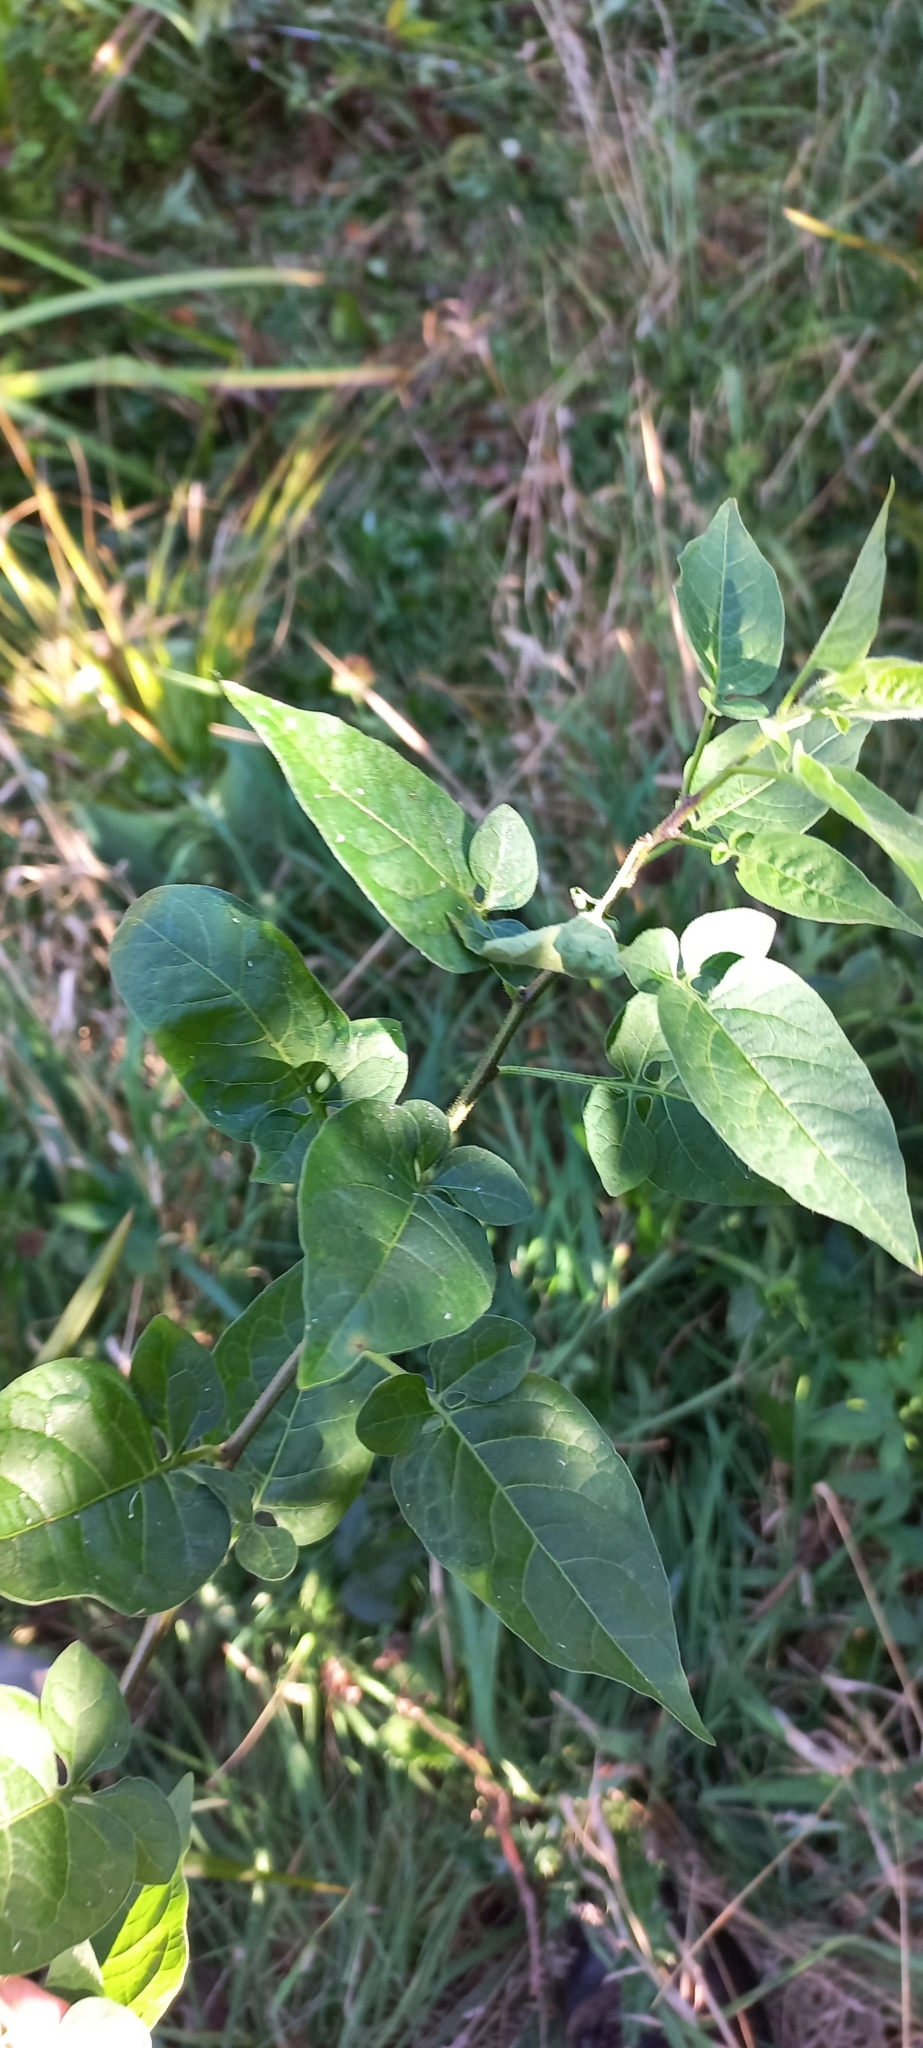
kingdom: Plantae
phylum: Tracheophyta
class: Magnoliopsida
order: Solanales
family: Solanaceae
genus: Solanum
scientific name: Solanum dulcamara
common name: Climbing nightshade
